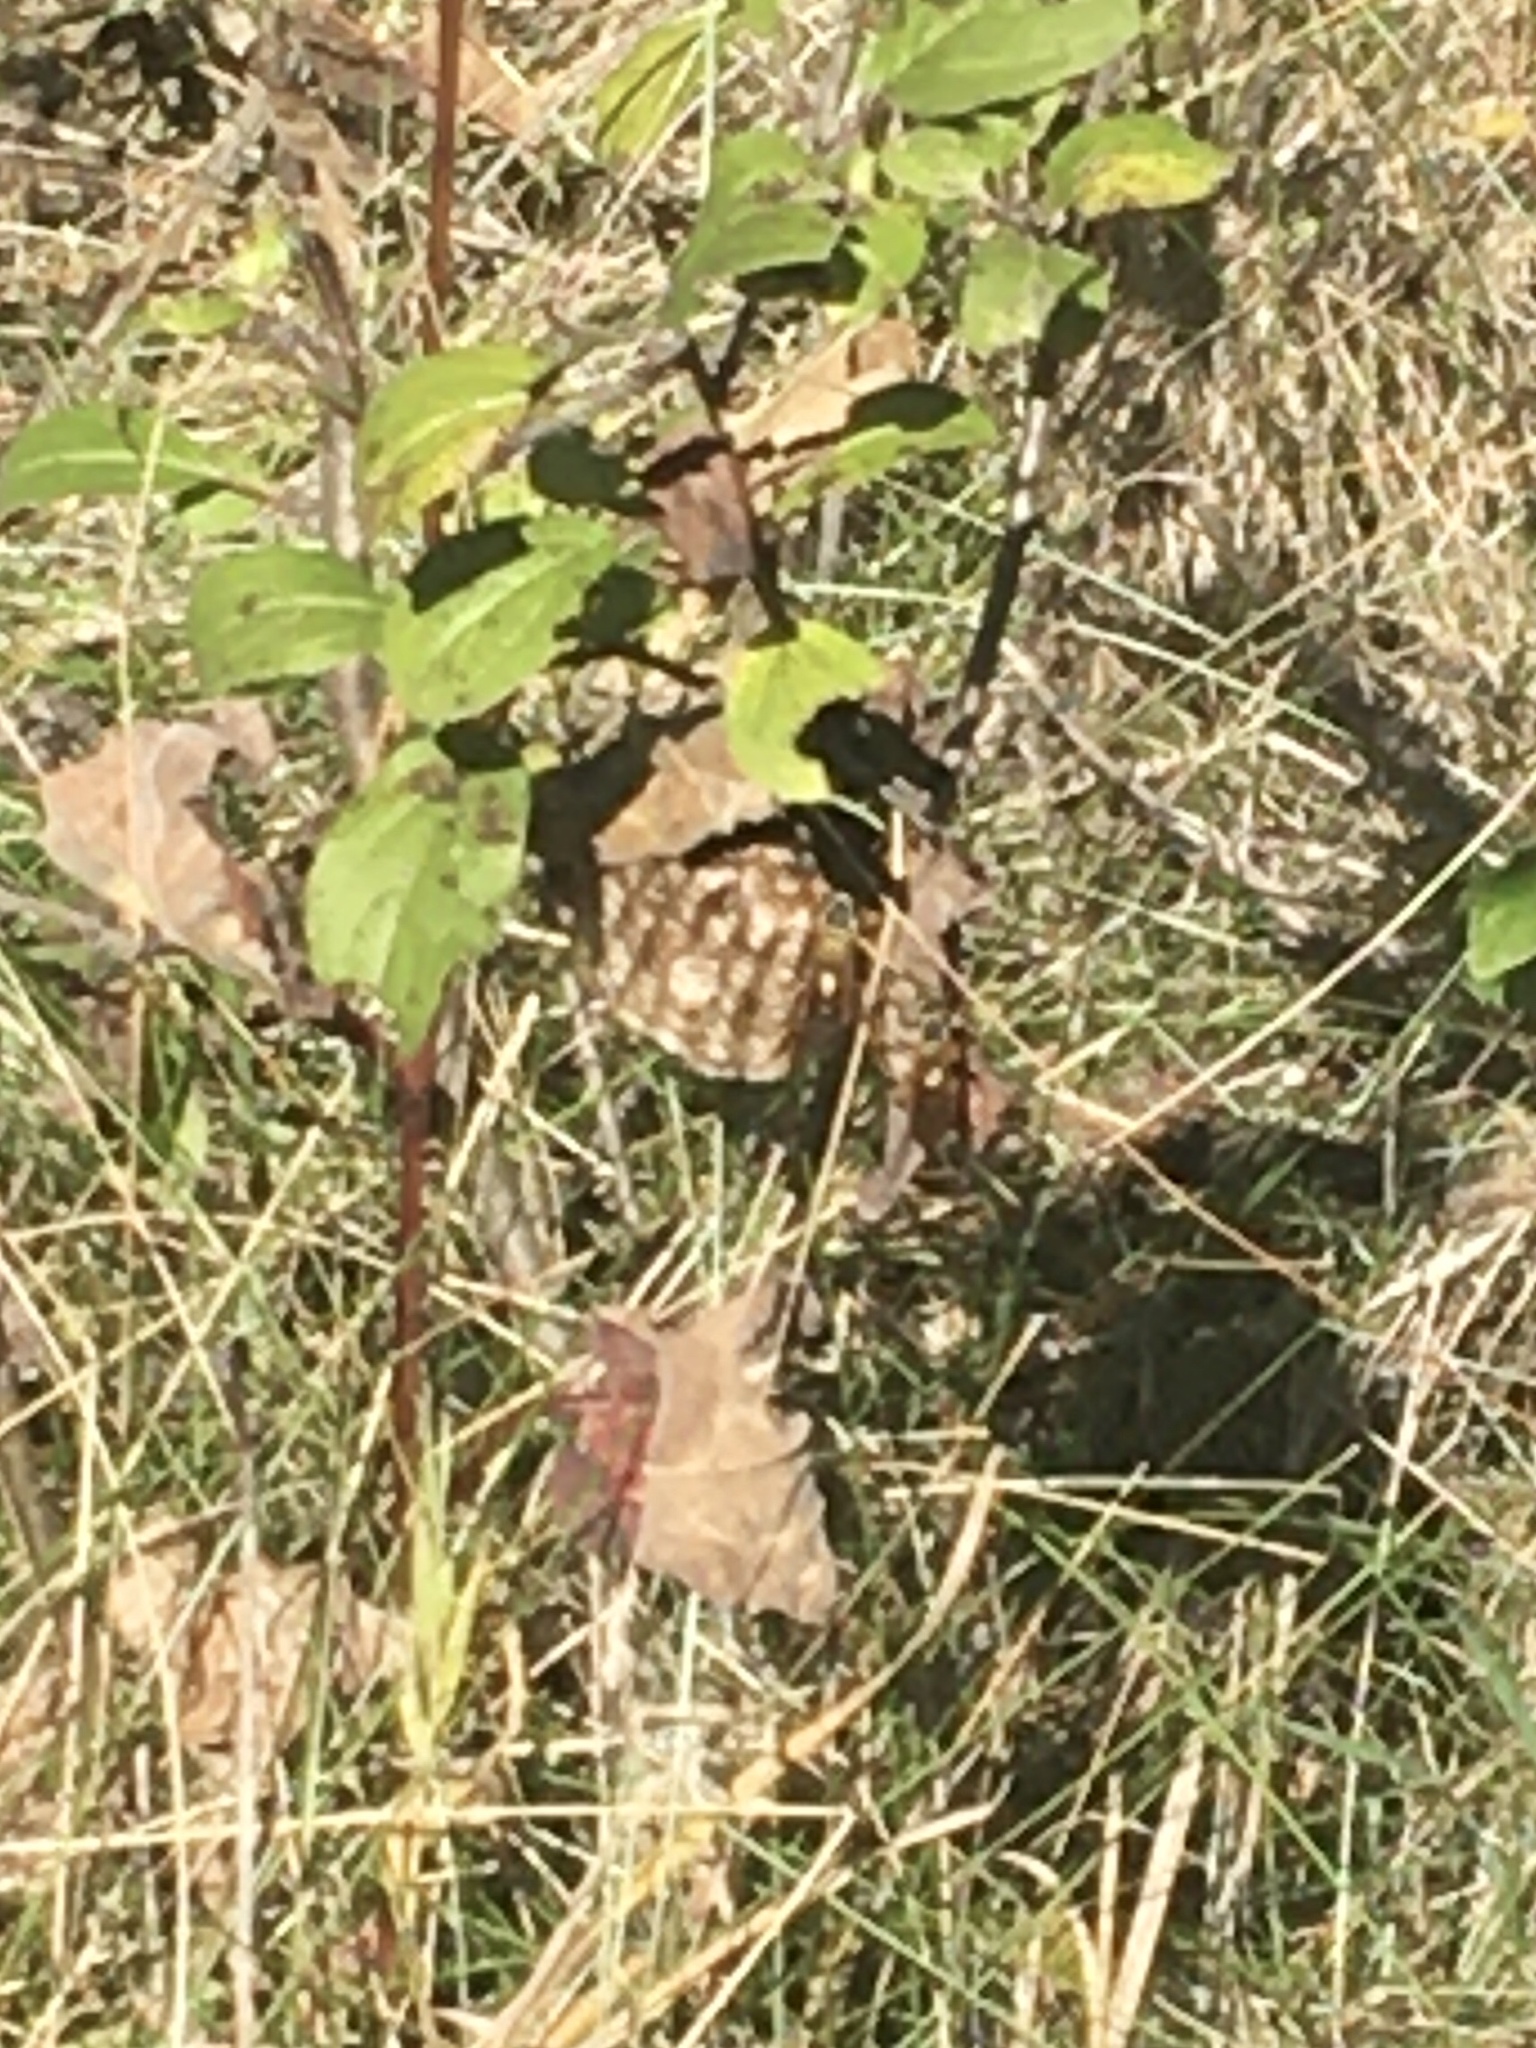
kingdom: Animalia
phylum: Arthropoda
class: Insecta
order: Hymenoptera
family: Eumenidae
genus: Polistes
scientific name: Polistes fuscatus
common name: Dark paper wasp
